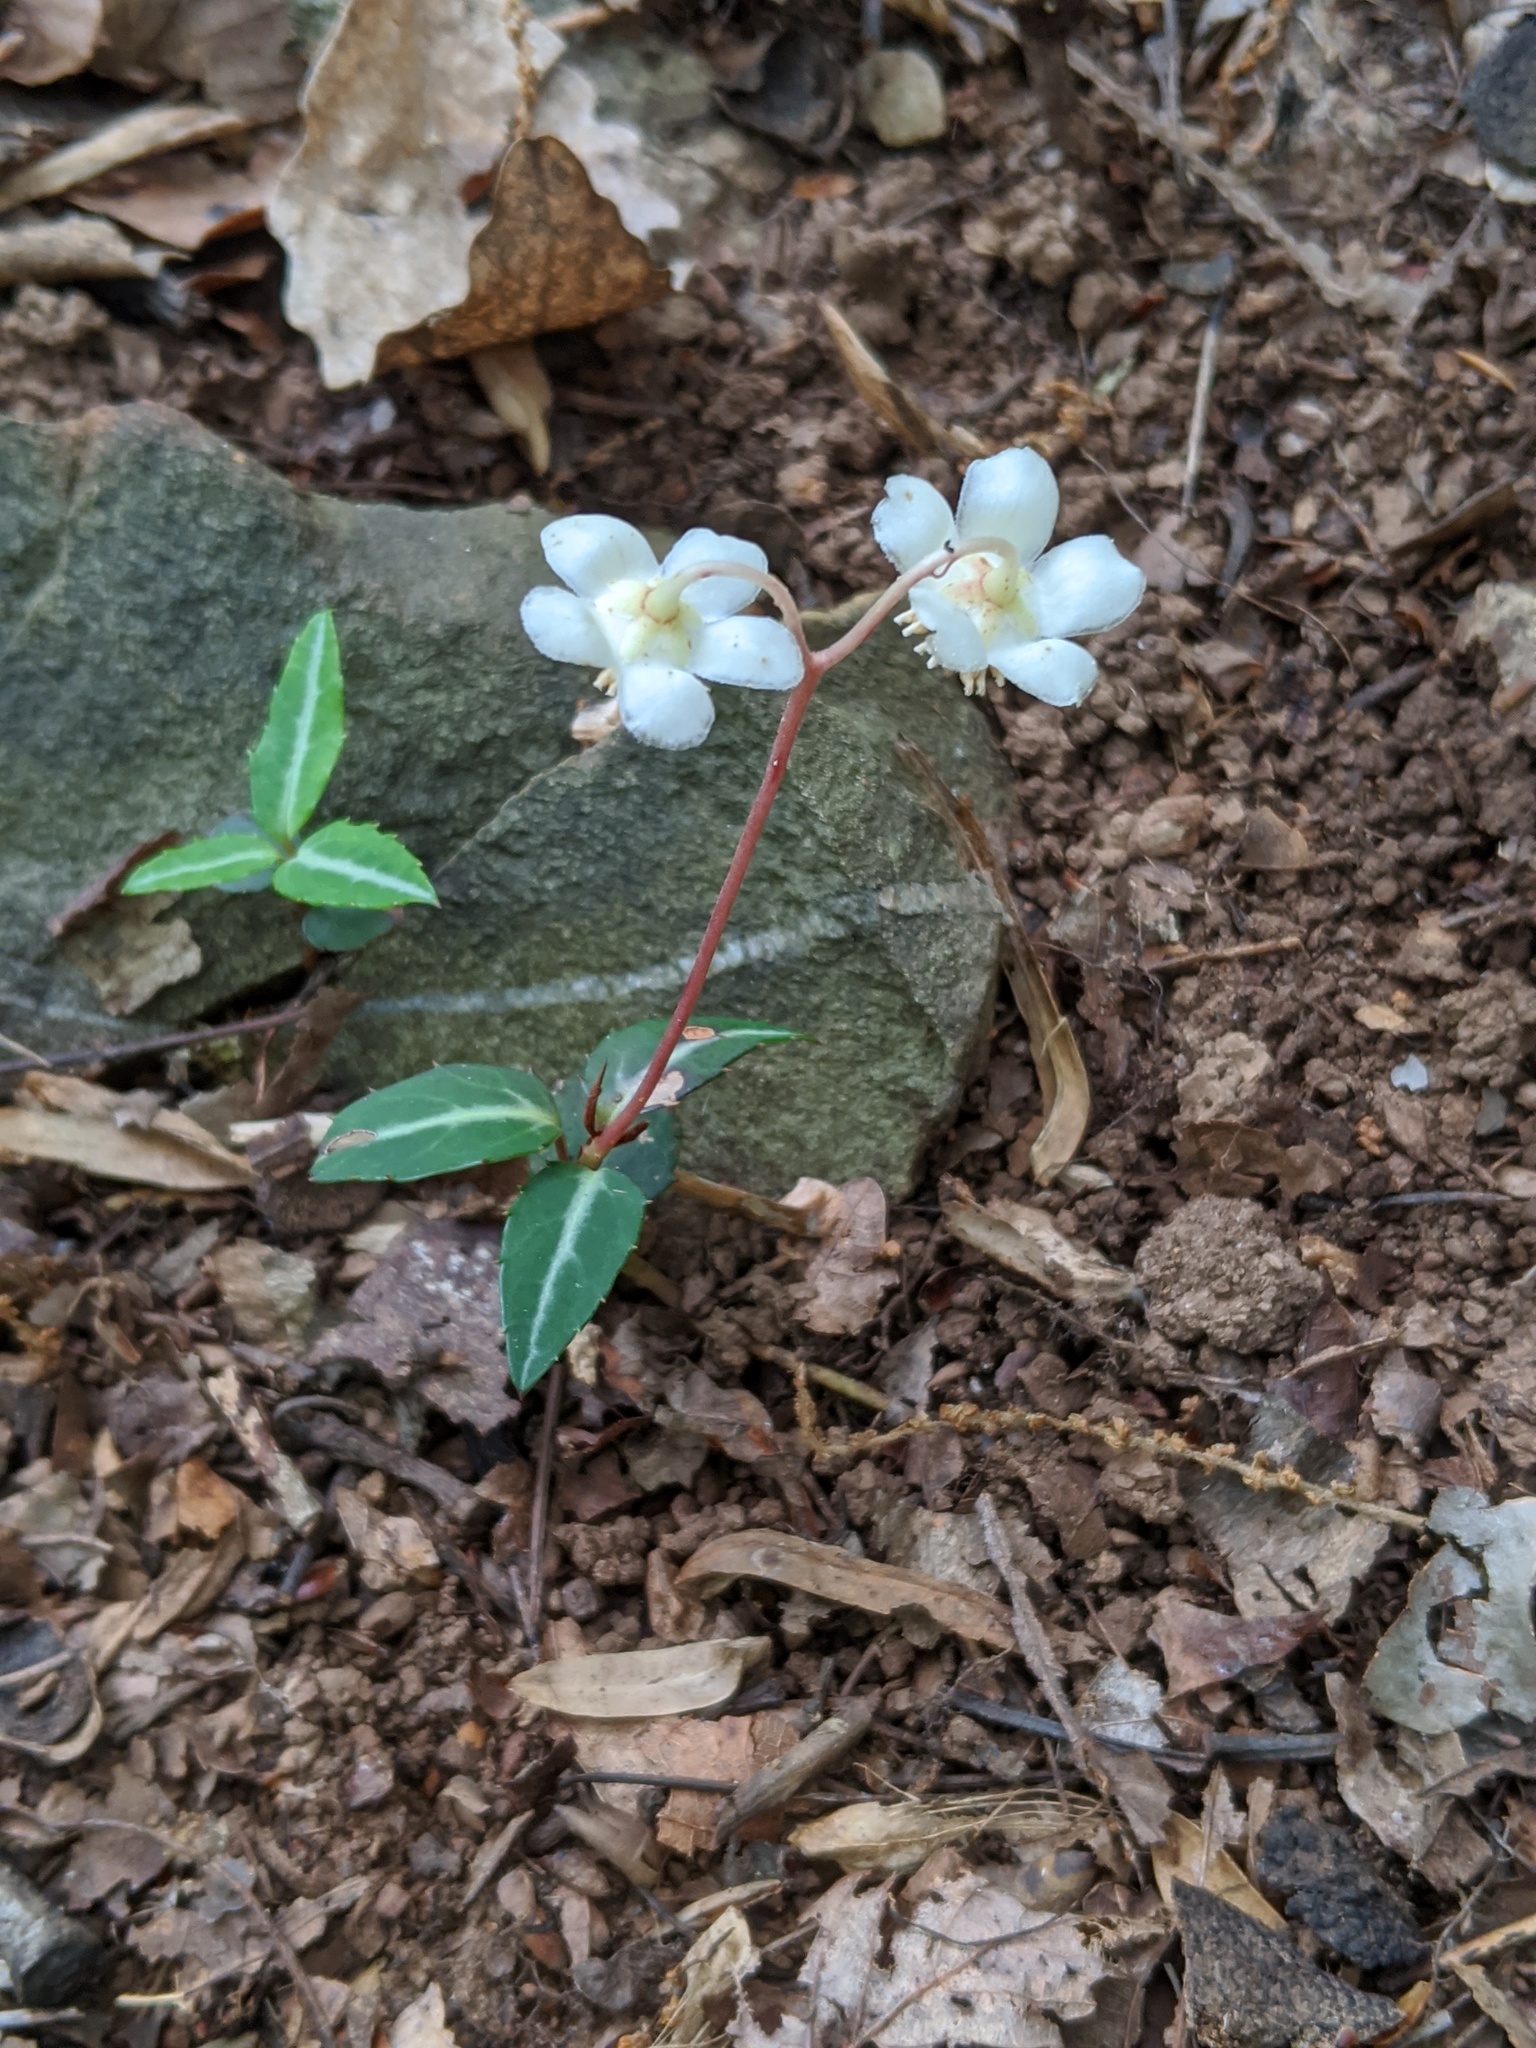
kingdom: Plantae
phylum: Tracheophyta
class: Magnoliopsida
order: Ericales
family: Ericaceae
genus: Chimaphila
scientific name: Chimaphila maculata
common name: Spotted pipsissewa
